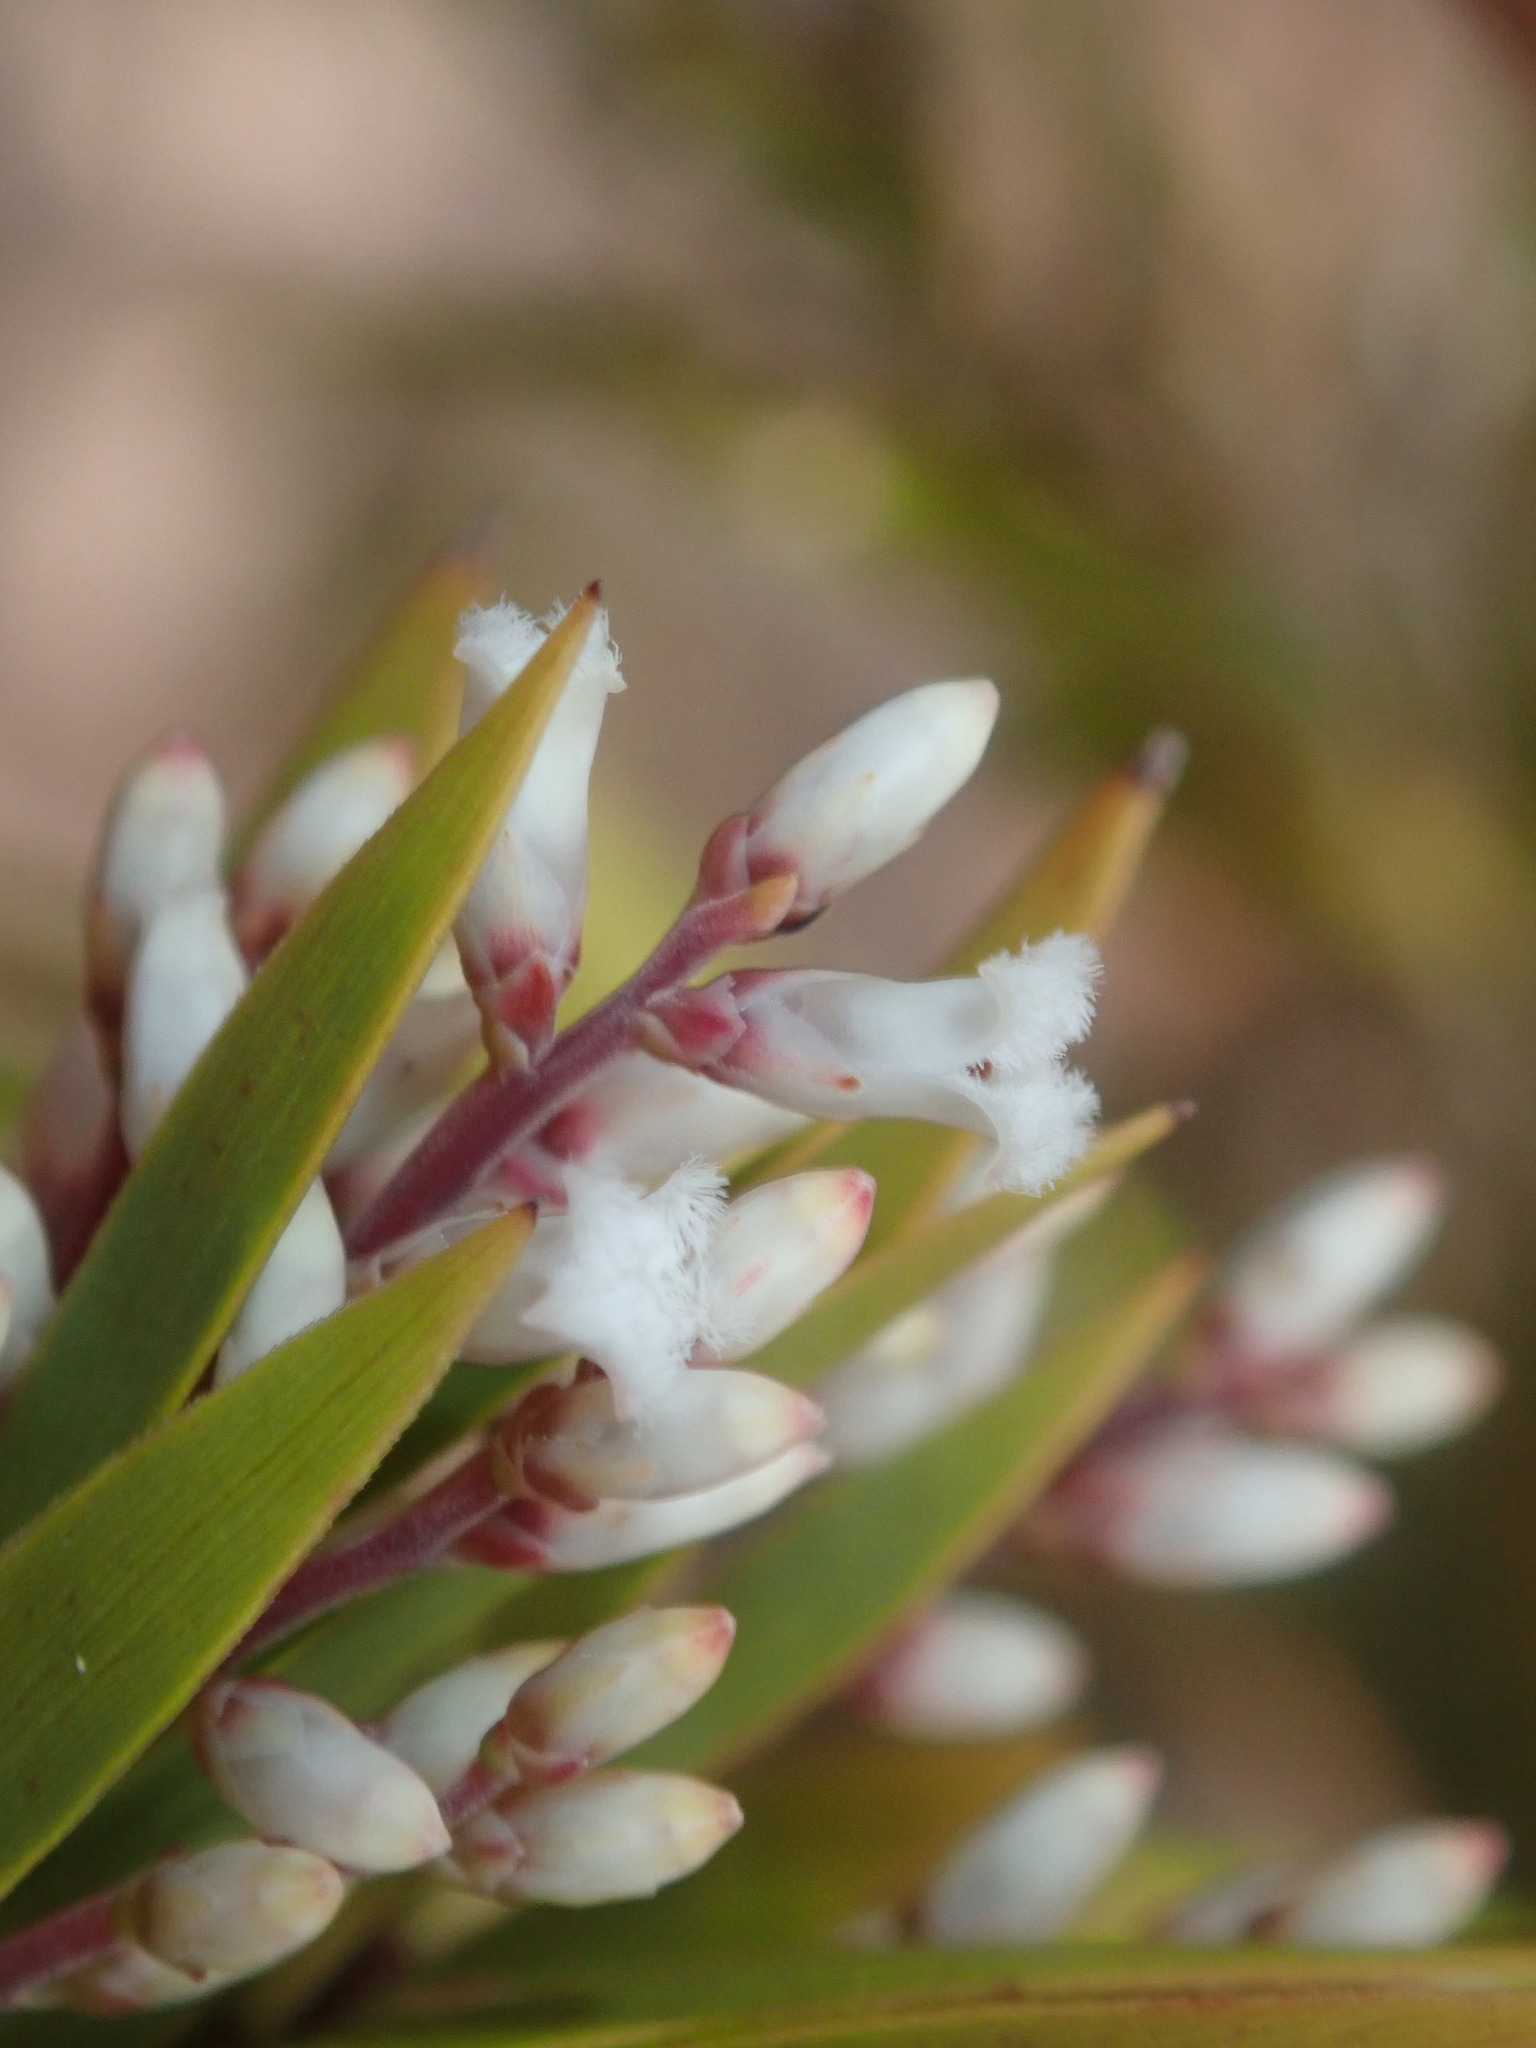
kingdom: Plantae
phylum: Tracheophyta
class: Magnoliopsida
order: Ericales
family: Ericaceae
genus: Leucopogon
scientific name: Leucopogon interstans
